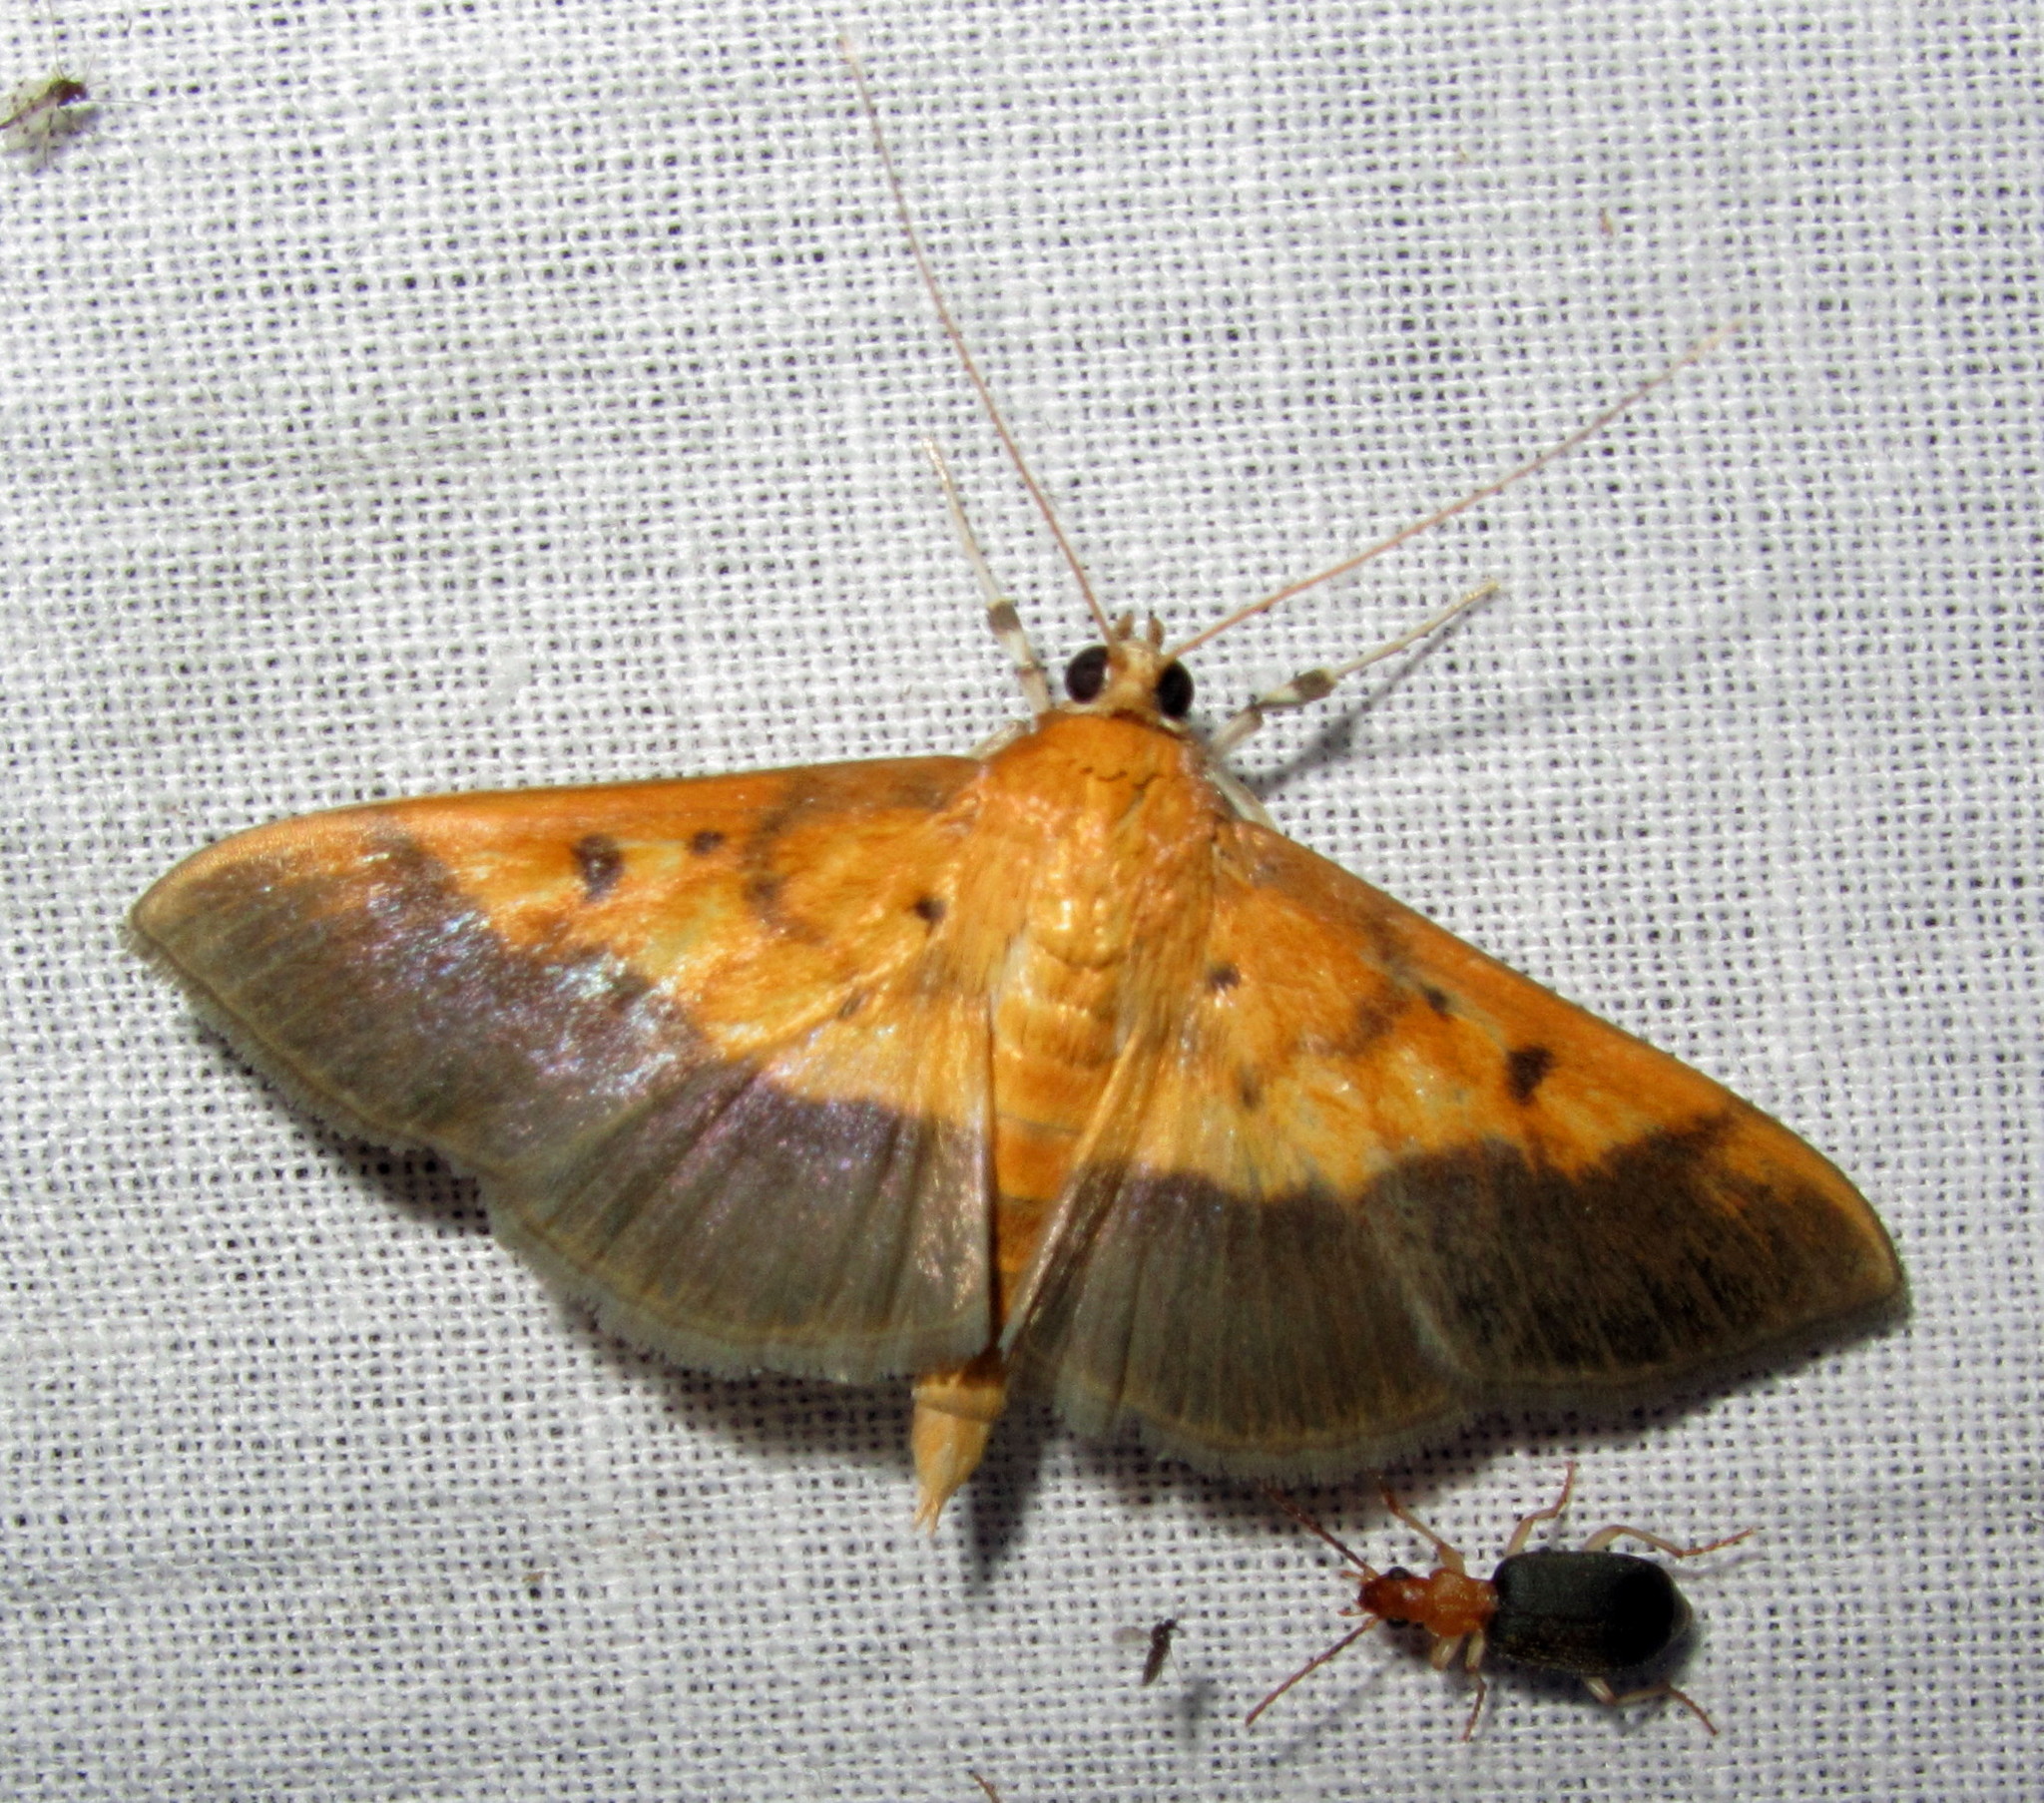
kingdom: Animalia
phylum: Arthropoda
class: Insecta
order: Lepidoptera
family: Crambidae
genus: Patania
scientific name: Patania scinisalis
